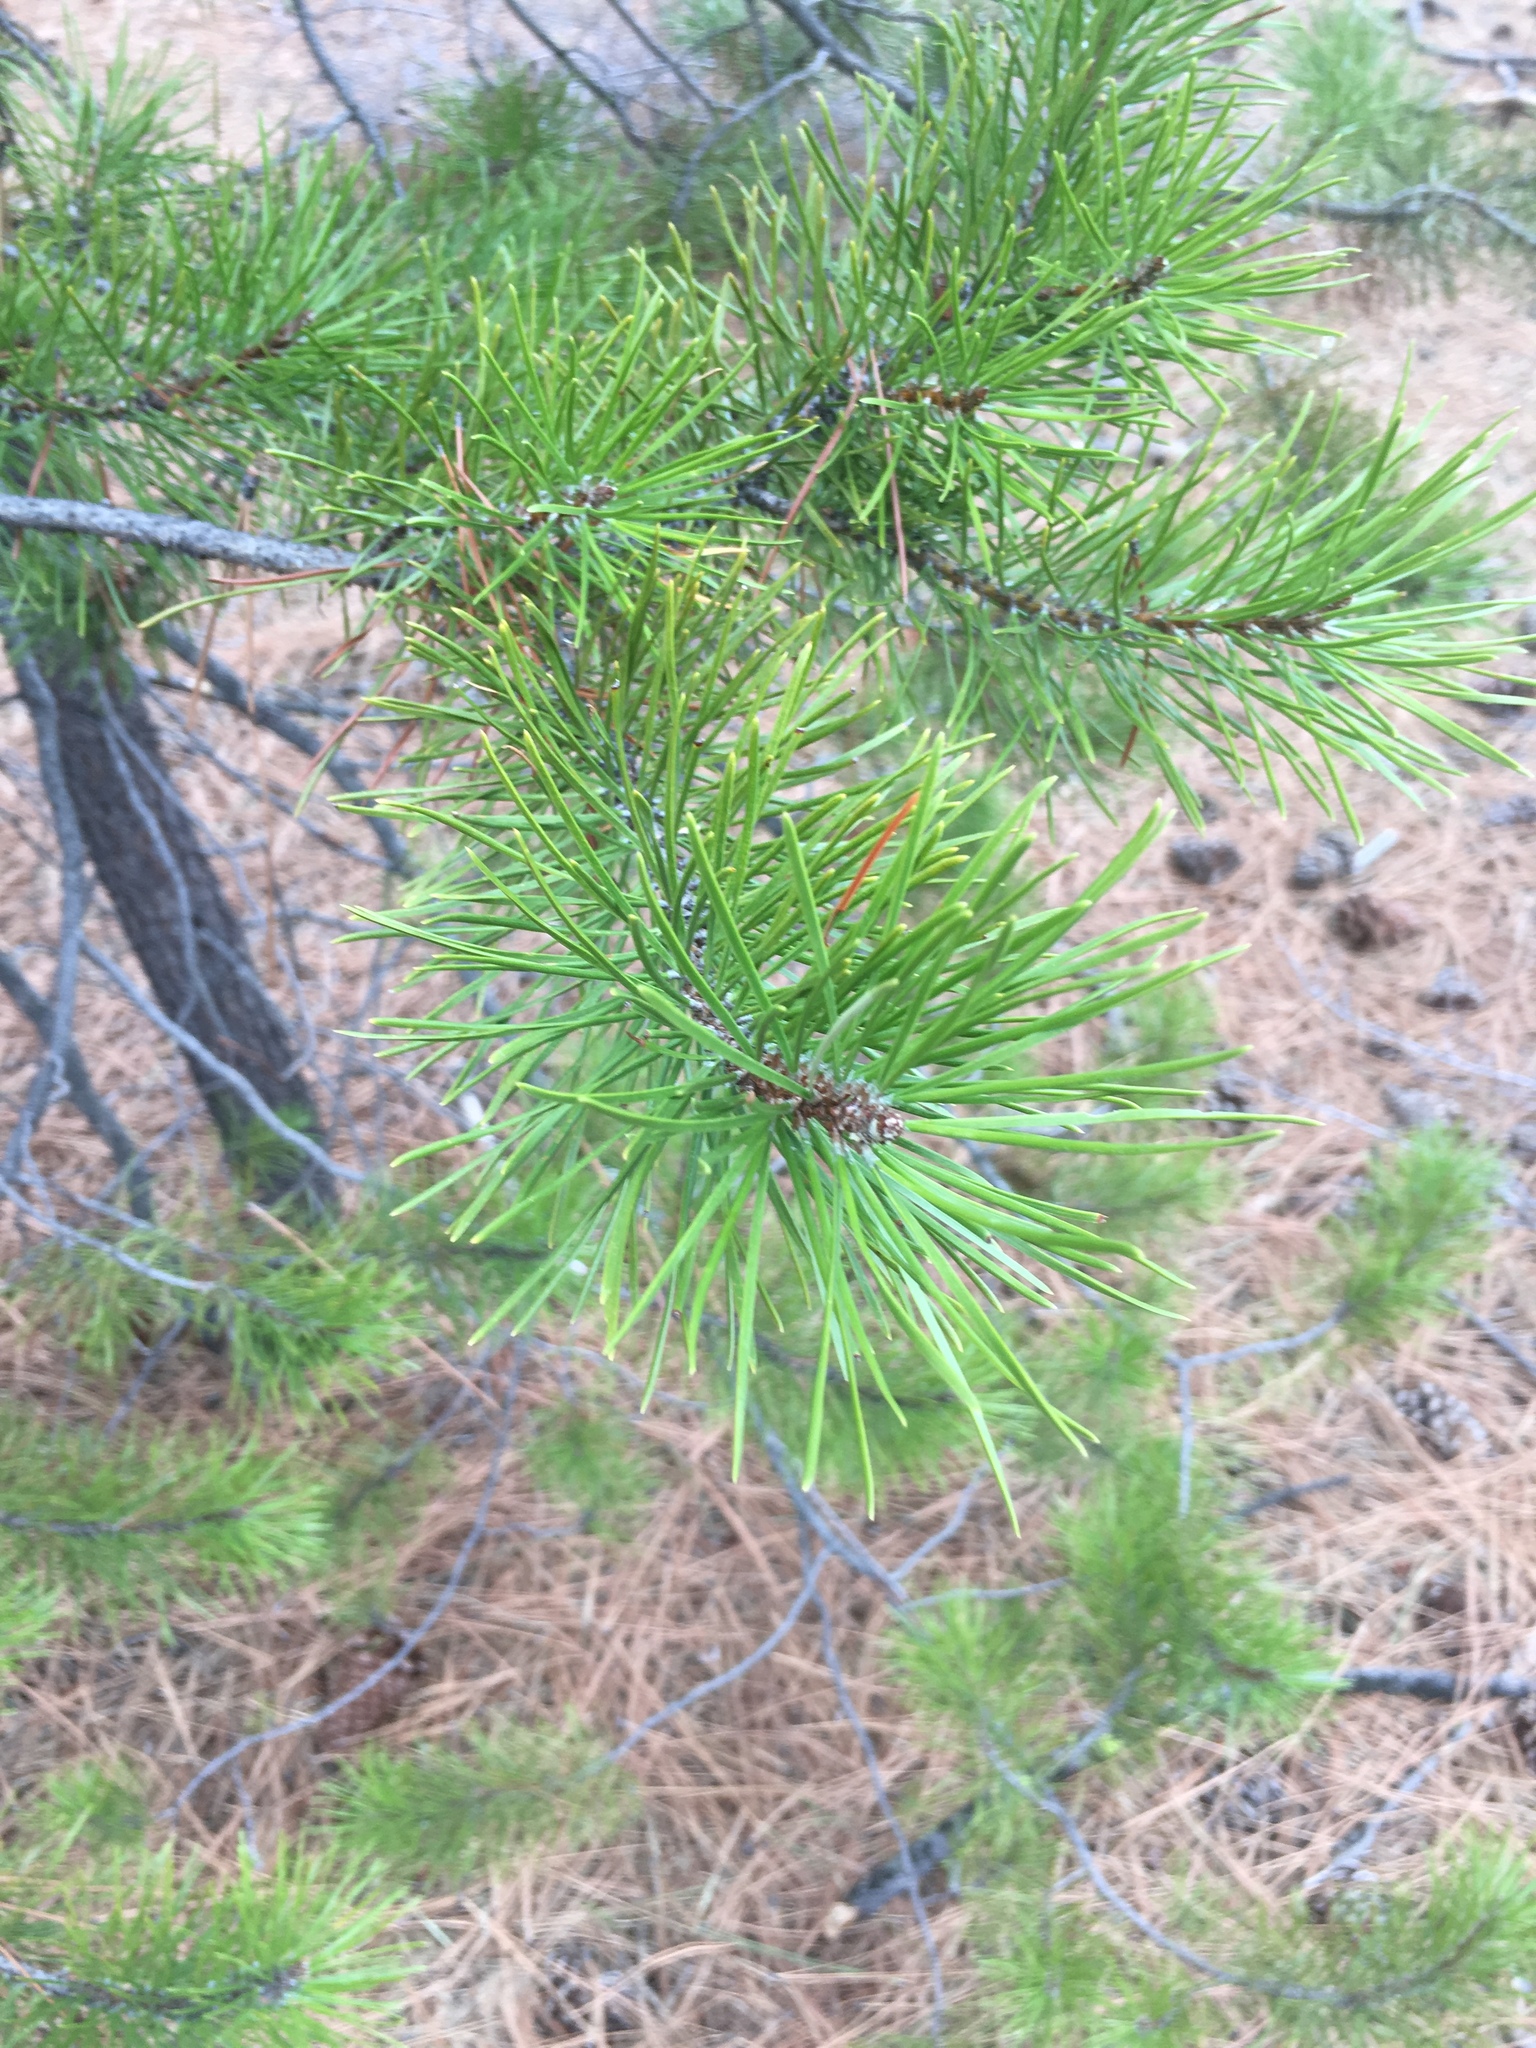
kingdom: Plantae
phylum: Tracheophyta
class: Pinopsida
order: Pinales
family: Pinaceae
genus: Pinus
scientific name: Pinus contorta
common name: Lodgepole pine
